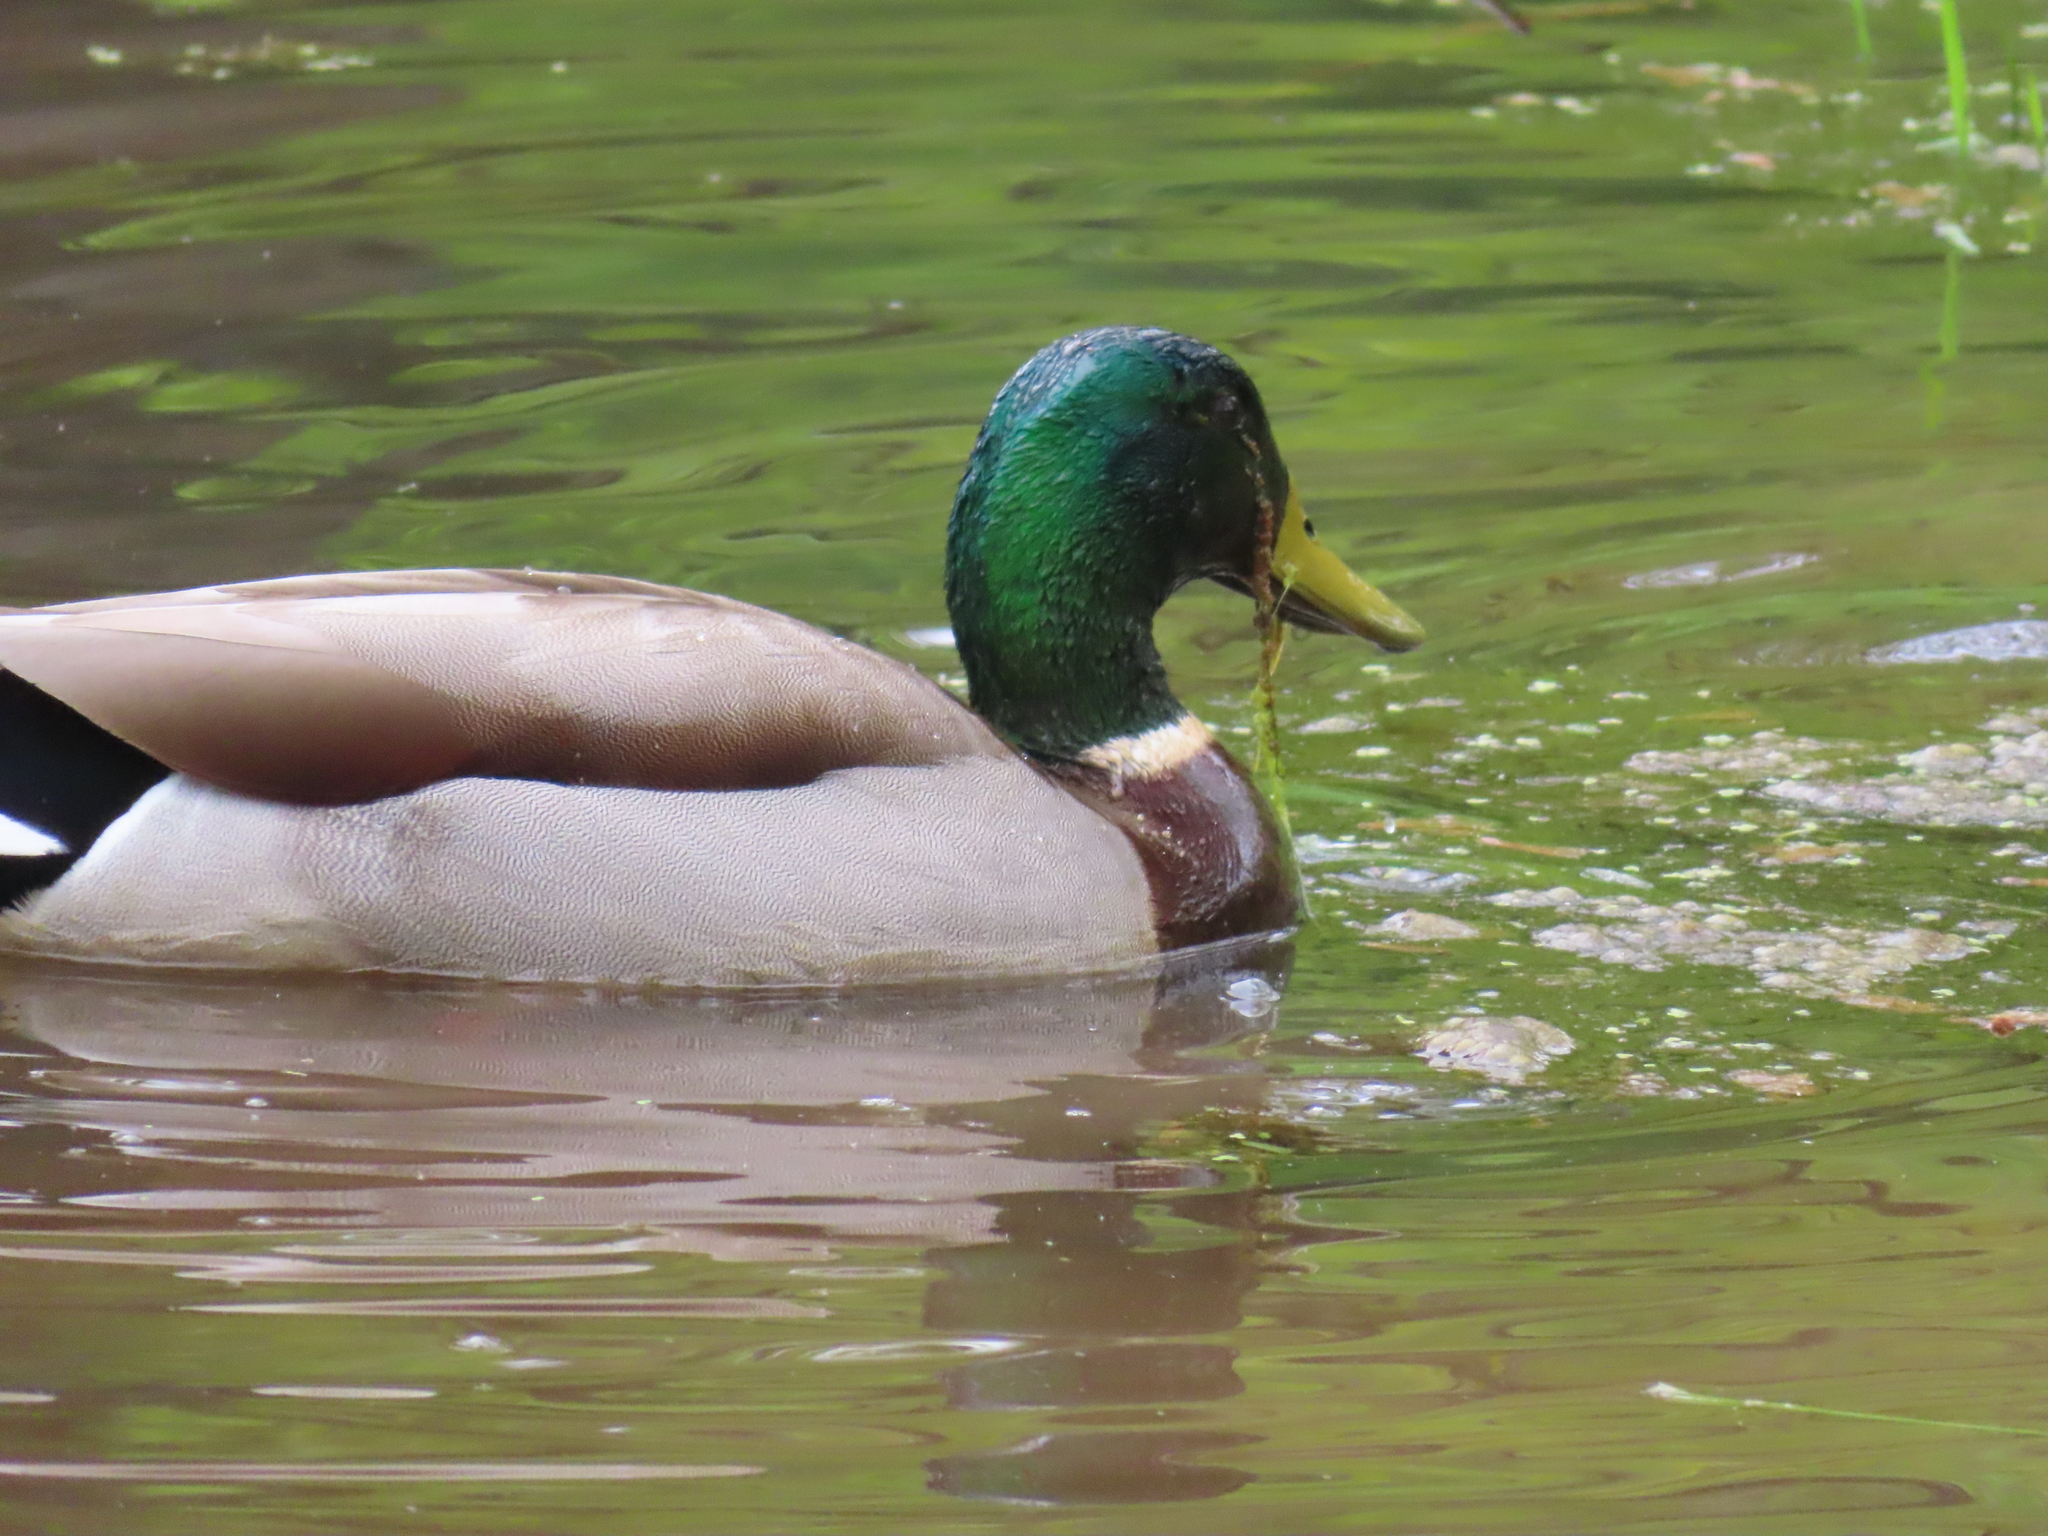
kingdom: Animalia
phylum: Chordata
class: Aves
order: Anseriformes
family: Anatidae
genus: Anas
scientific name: Anas platyrhynchos
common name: Mallard
